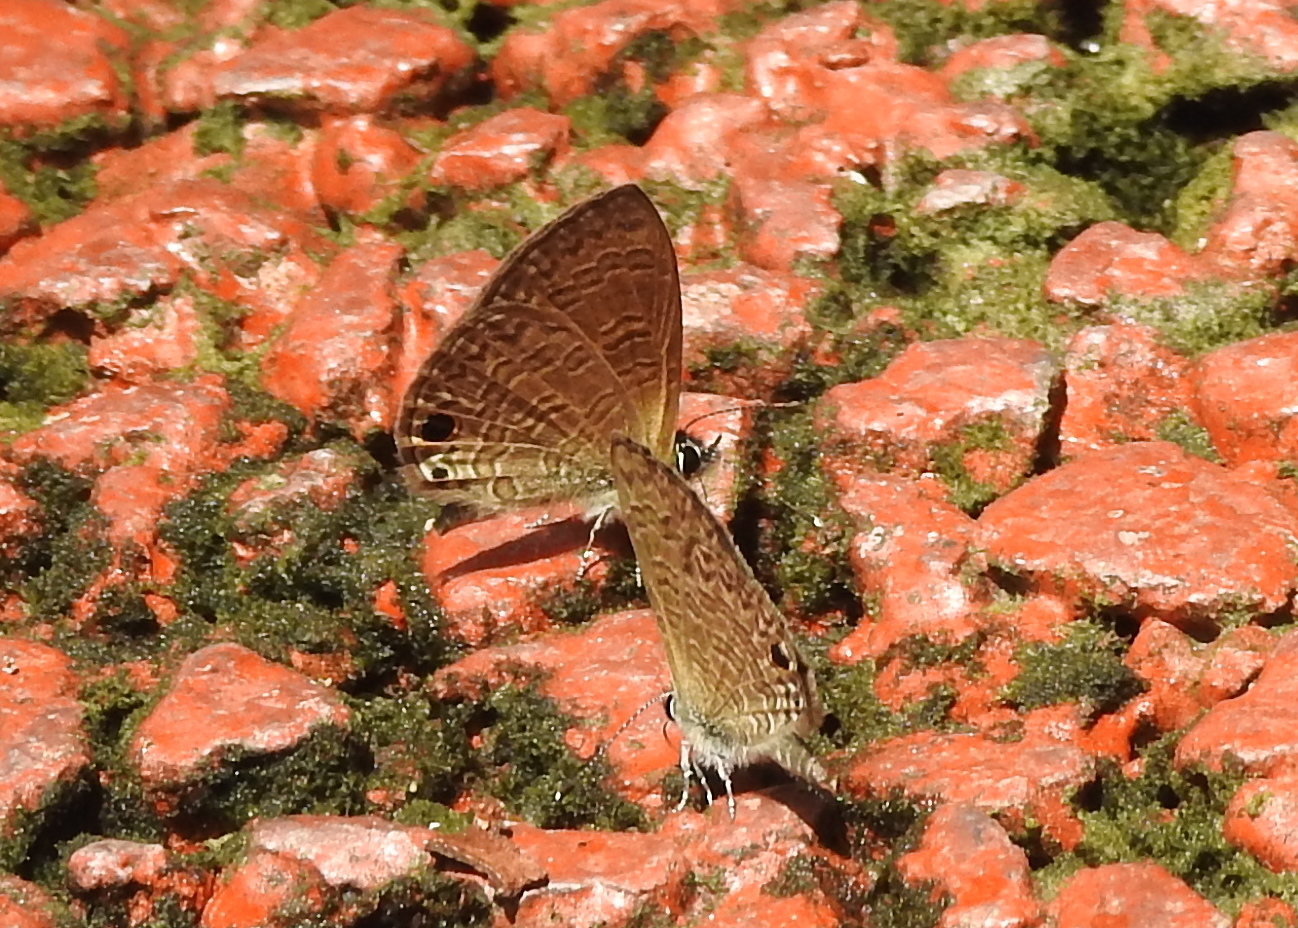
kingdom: Animalia
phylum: Arthropoda
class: Insecta
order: Lepidoptera
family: Lycaenidae
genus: Prosotas
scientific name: Prosotas dubiosa
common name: Tailless lineblue
